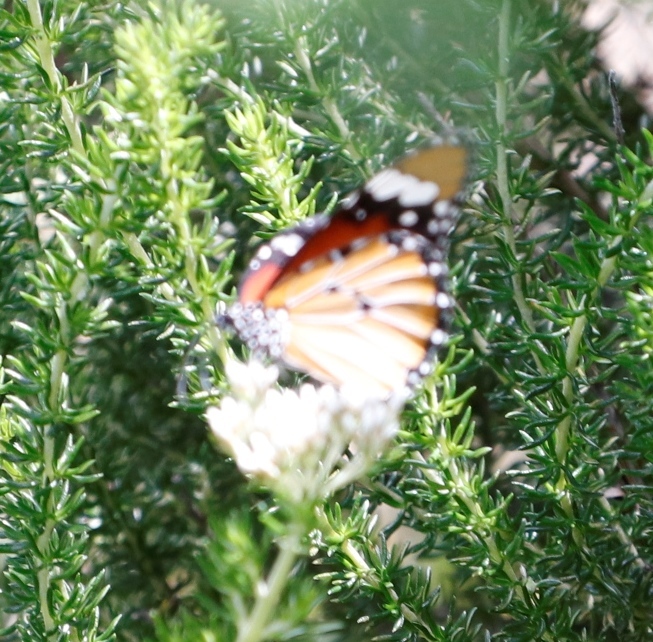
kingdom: Animalia
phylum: Arthropoda
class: Insecta
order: Lepidoptera
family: Nymphalidae
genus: Danaus
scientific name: Danaus chrysippus
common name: Plain tiger
